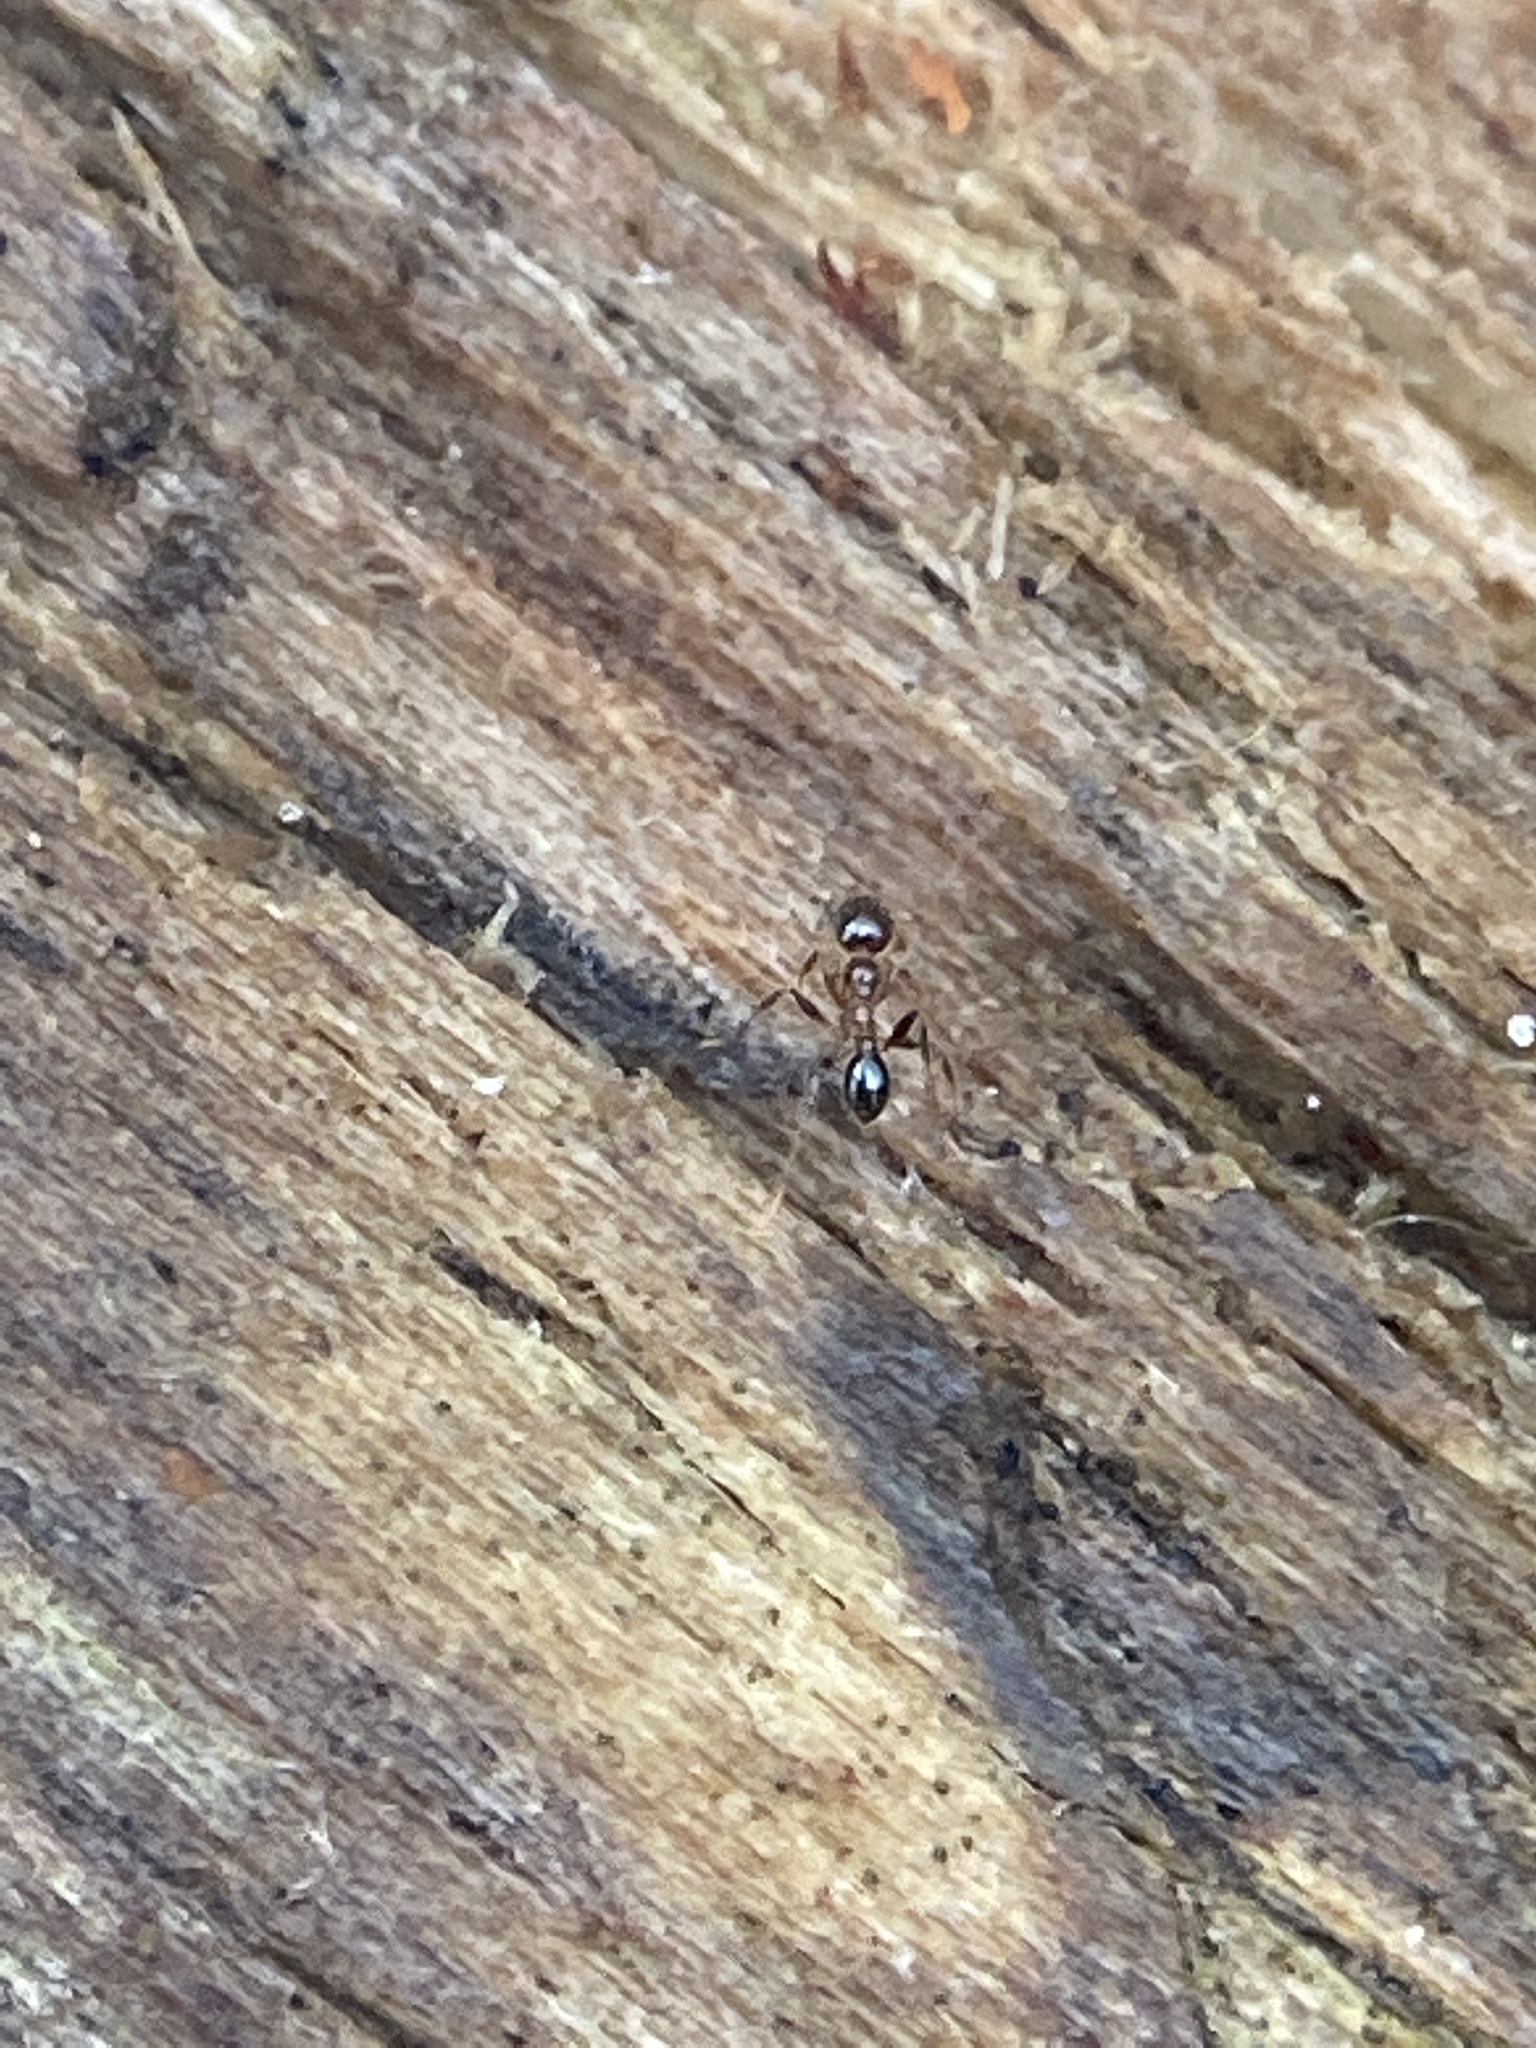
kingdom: Animalia
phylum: Arthropoda
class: Insecta
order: Hymenoptera
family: Formicidae
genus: Pheidole
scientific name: Pheidole dentata
